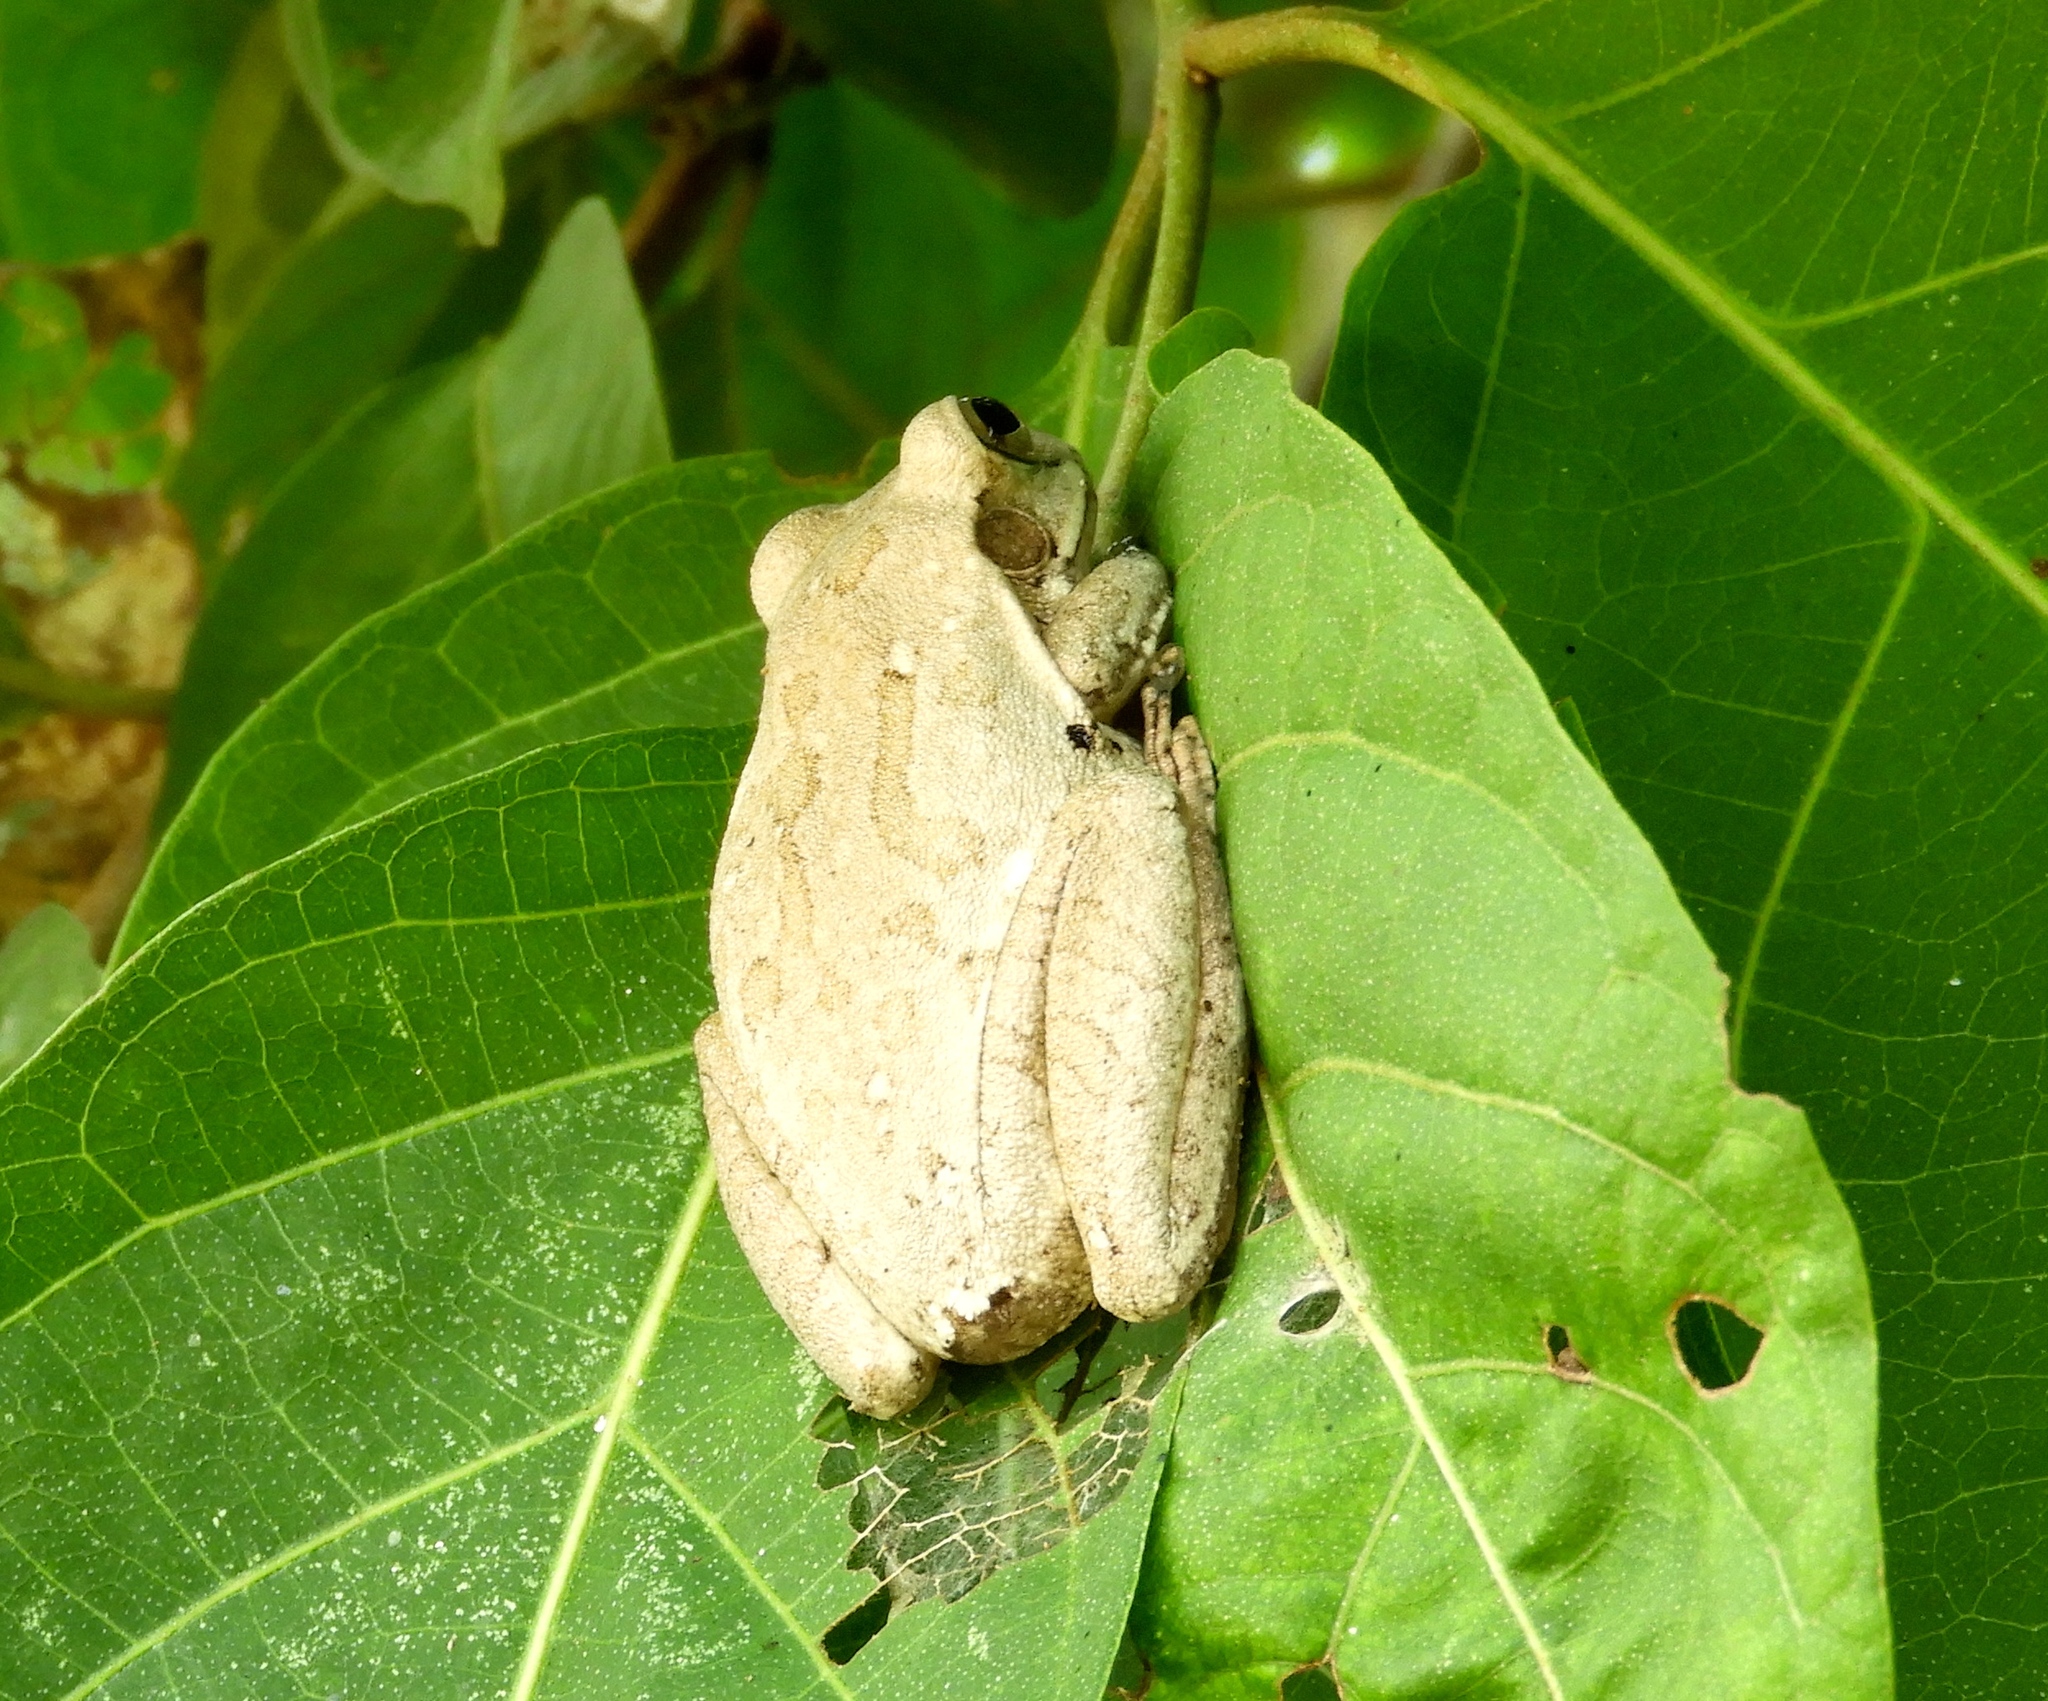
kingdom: Animalia
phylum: Chordata
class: Amphibia
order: Anura
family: Hylidae
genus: Smilisca
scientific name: Smilisca baudinii
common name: Mexican smilisca
